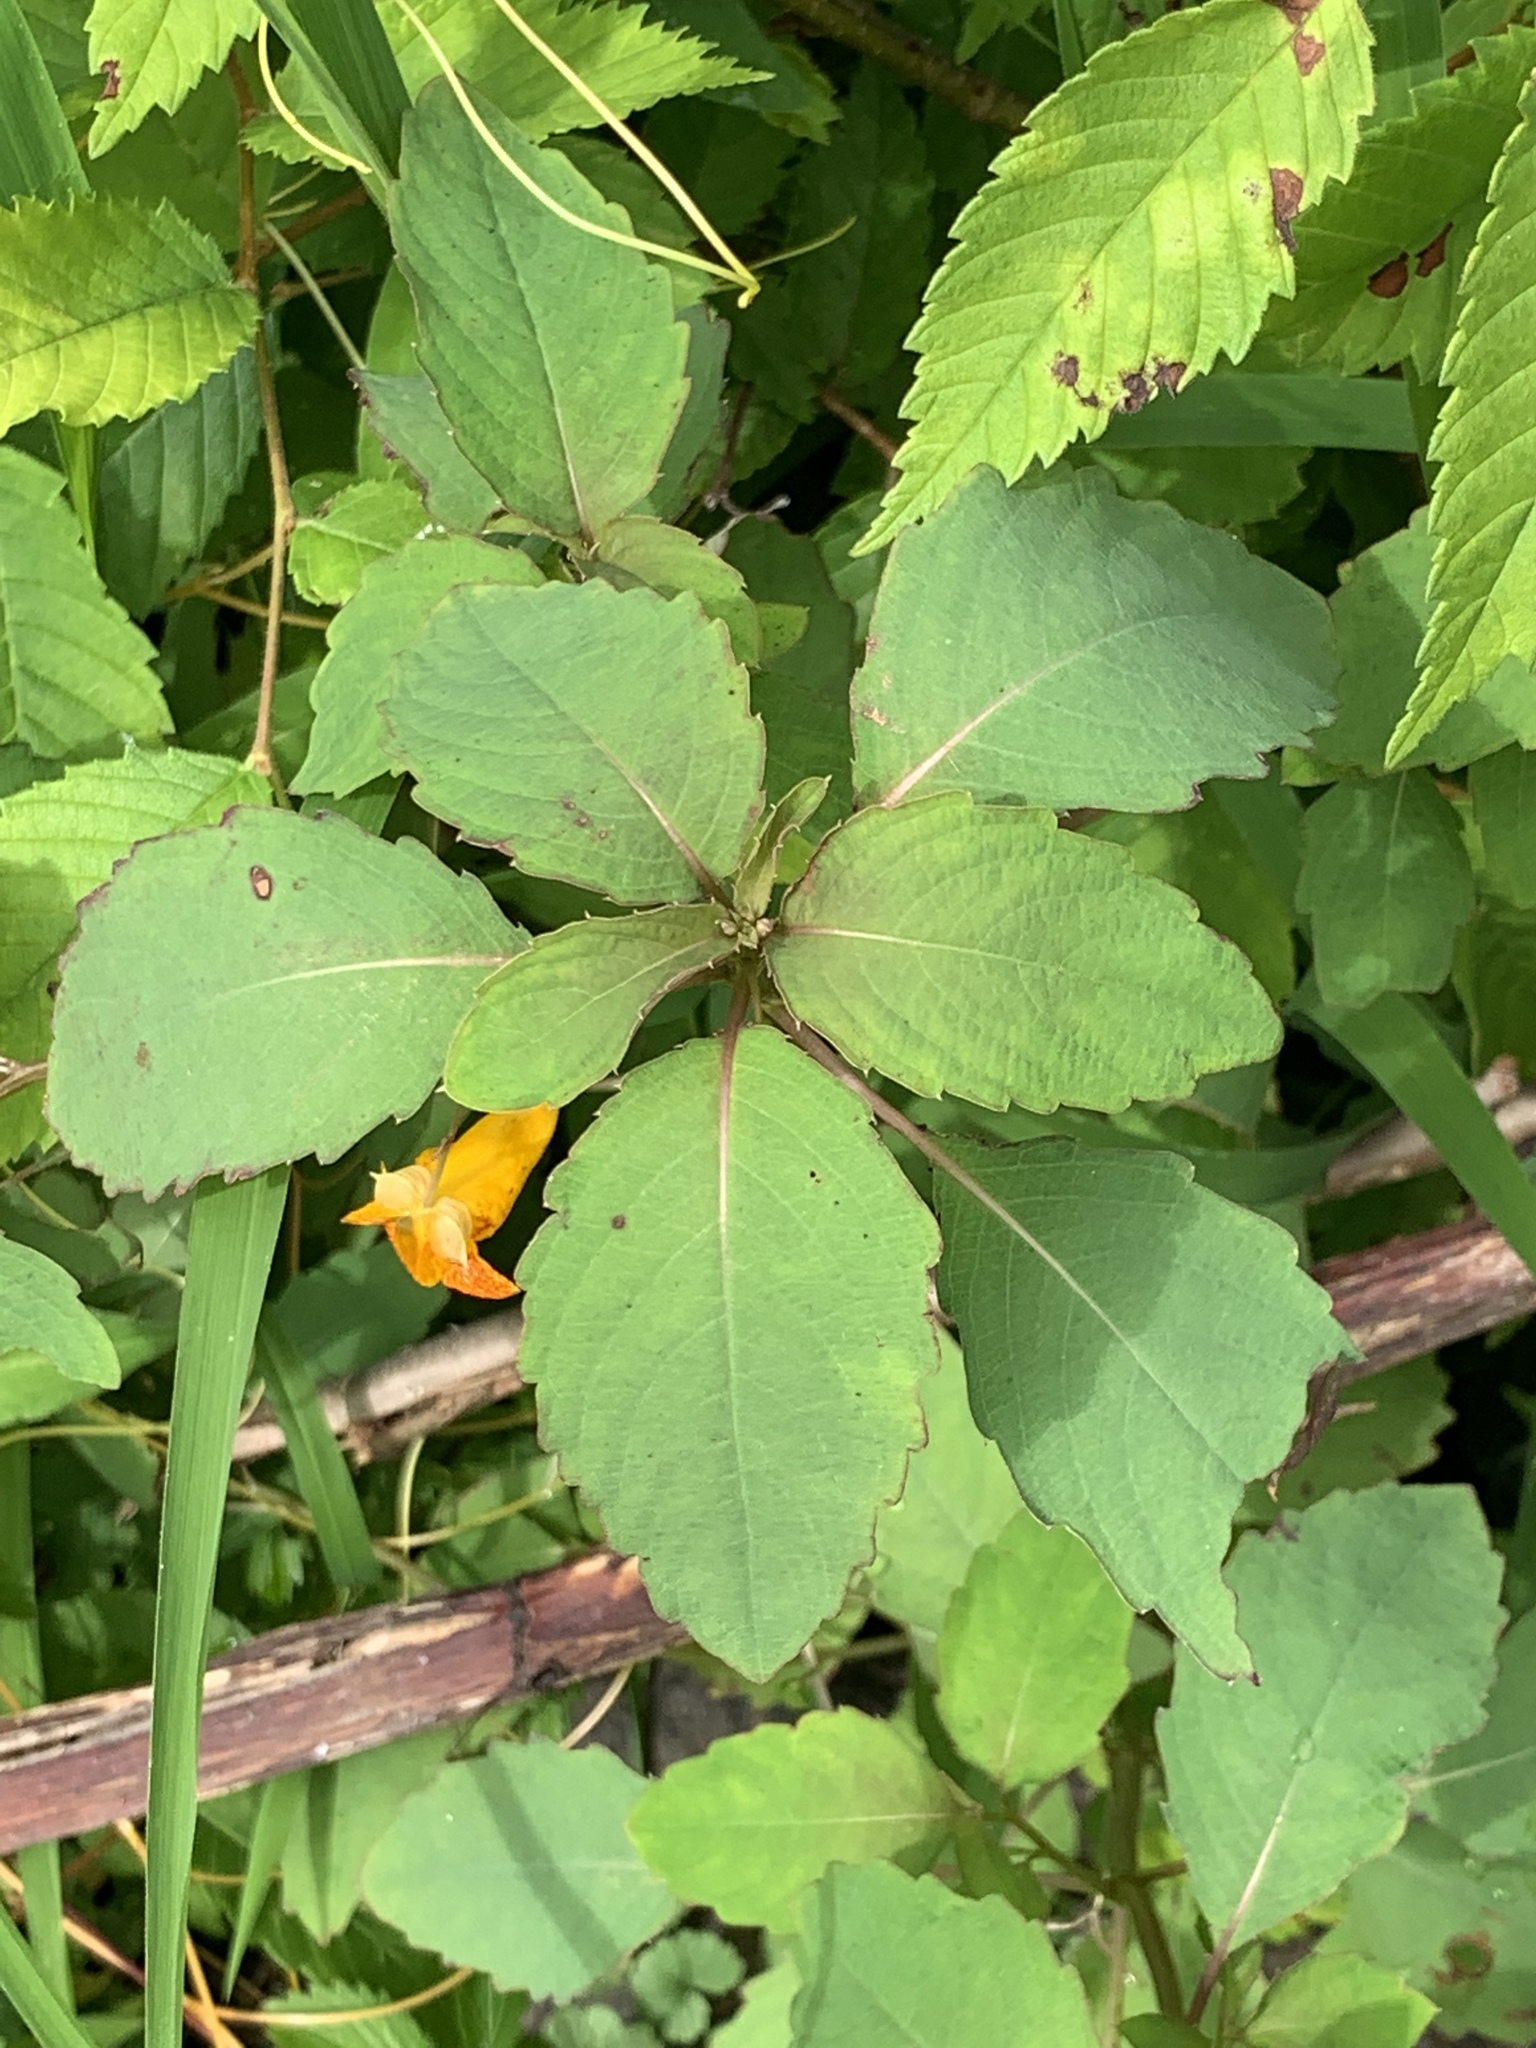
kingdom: Plantae
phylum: Tracheophyta
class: Magnoliopsida
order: Ericales
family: Balsaminaceae
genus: Impatiens
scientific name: Impatiens capensis
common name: Orange balsam
